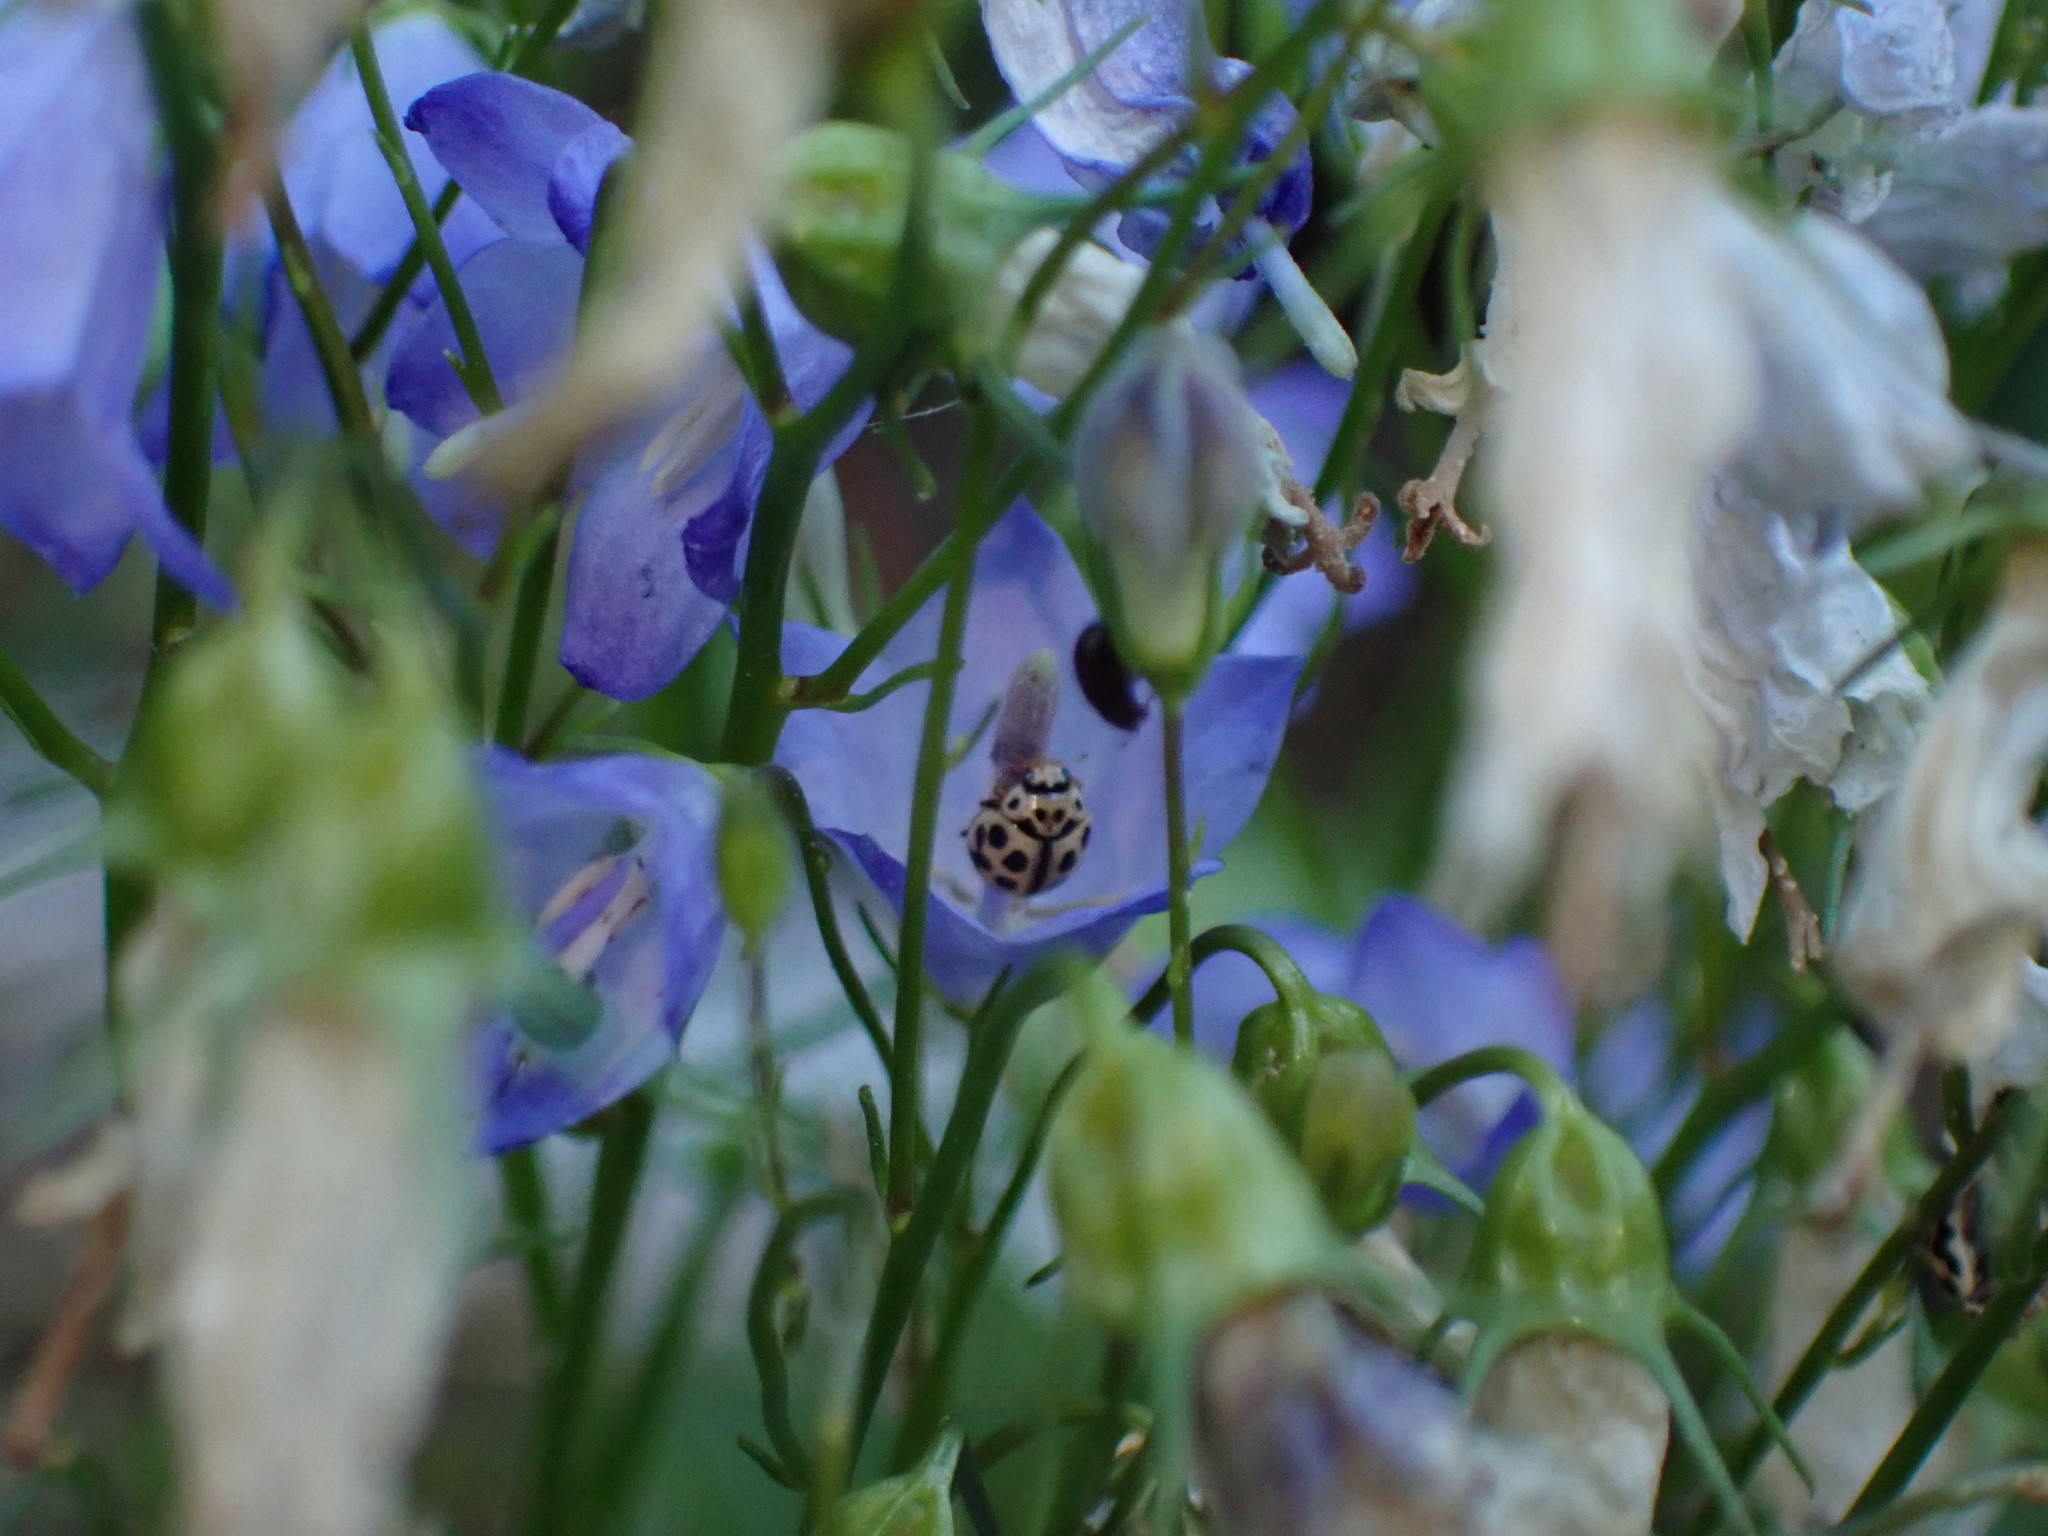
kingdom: Animalia
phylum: Arthropoda
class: Insecta
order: Coleoptera
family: Coccinellidae
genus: Tytthaspis
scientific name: Tytthaspis sedecimpunctata
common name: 16-spot ladybird
